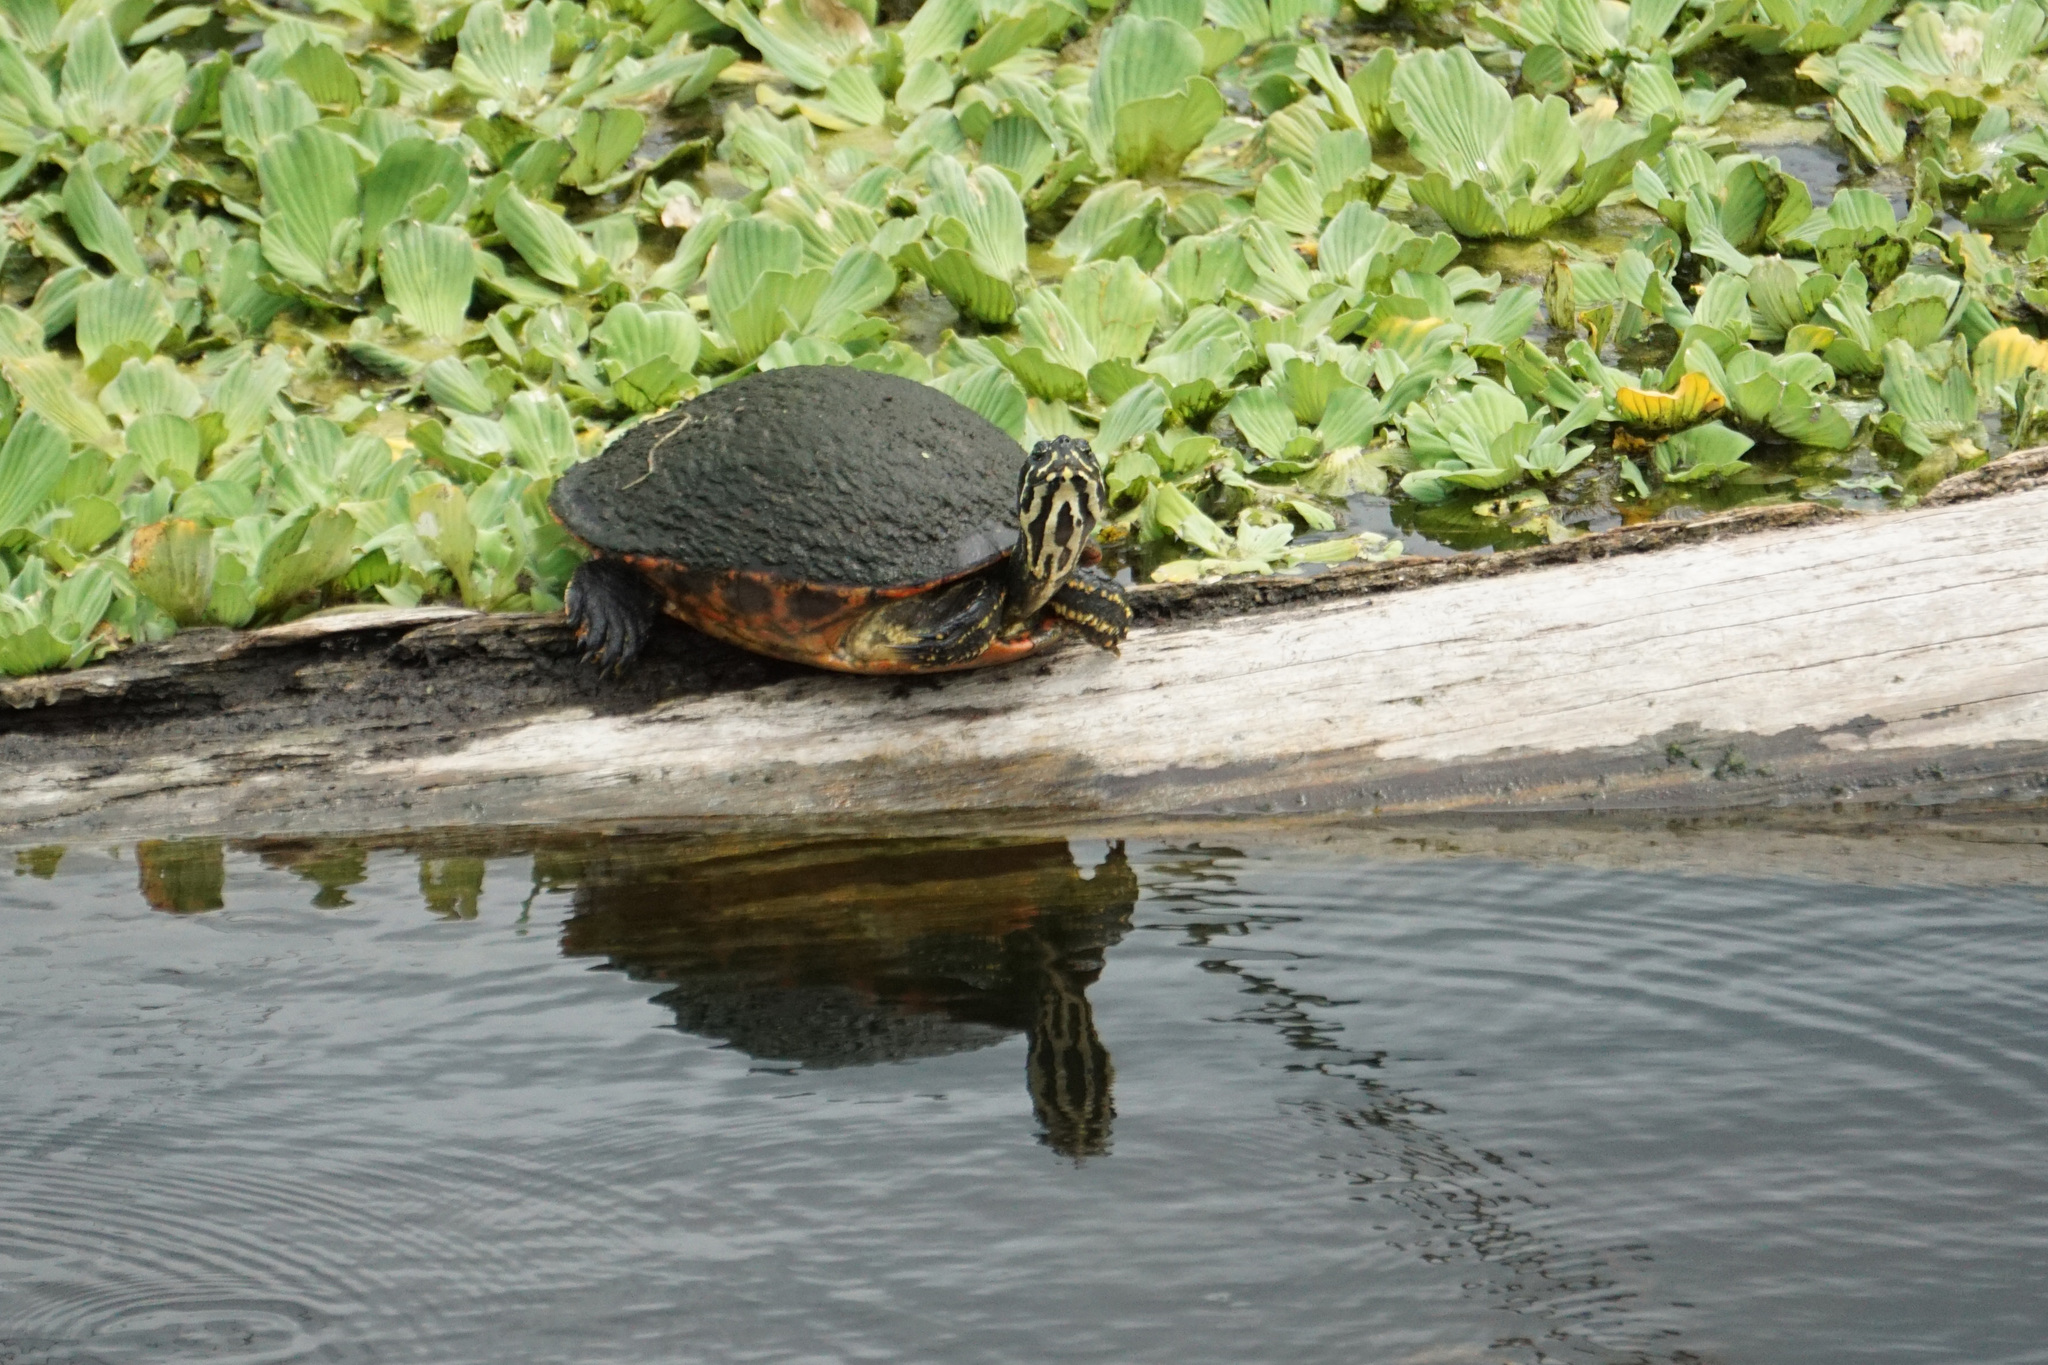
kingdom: Animalia
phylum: Chordata
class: Testudines
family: Emydidae
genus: Pseudemys
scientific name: Pseudemys nelsoni
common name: Florida red-bellied turtle
